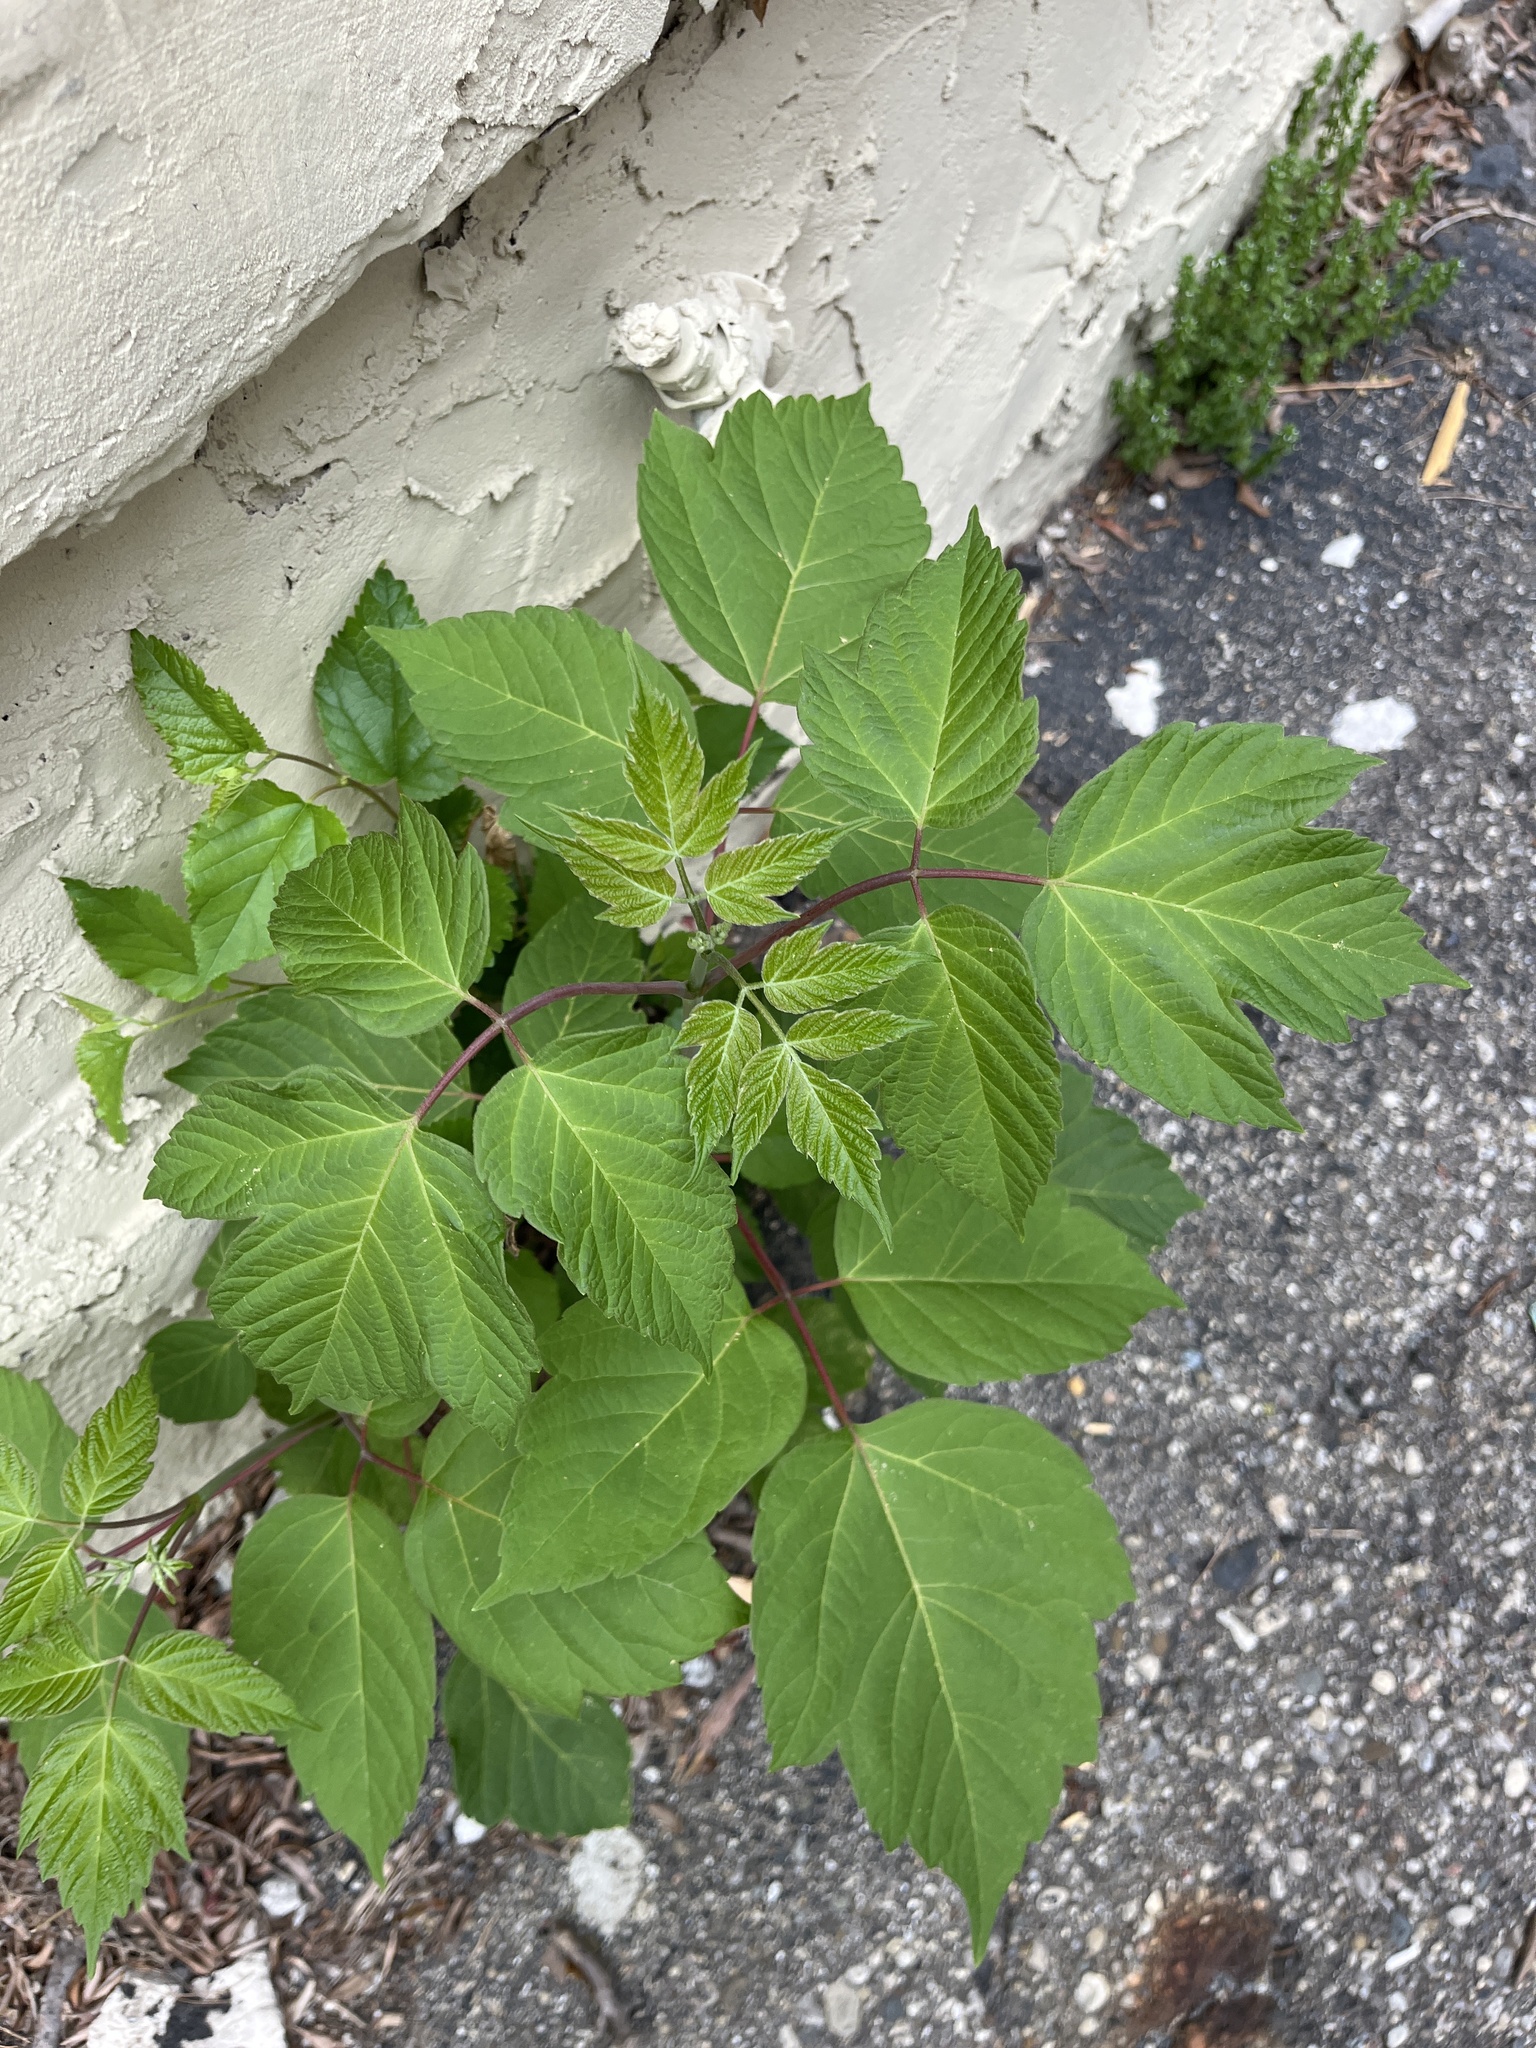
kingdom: Plantae
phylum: Tracheophyta
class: Magnoliopsida
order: Sapindales
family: Sapindaceae
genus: Acer
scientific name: Acer negundo
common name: Ashleaf maple
